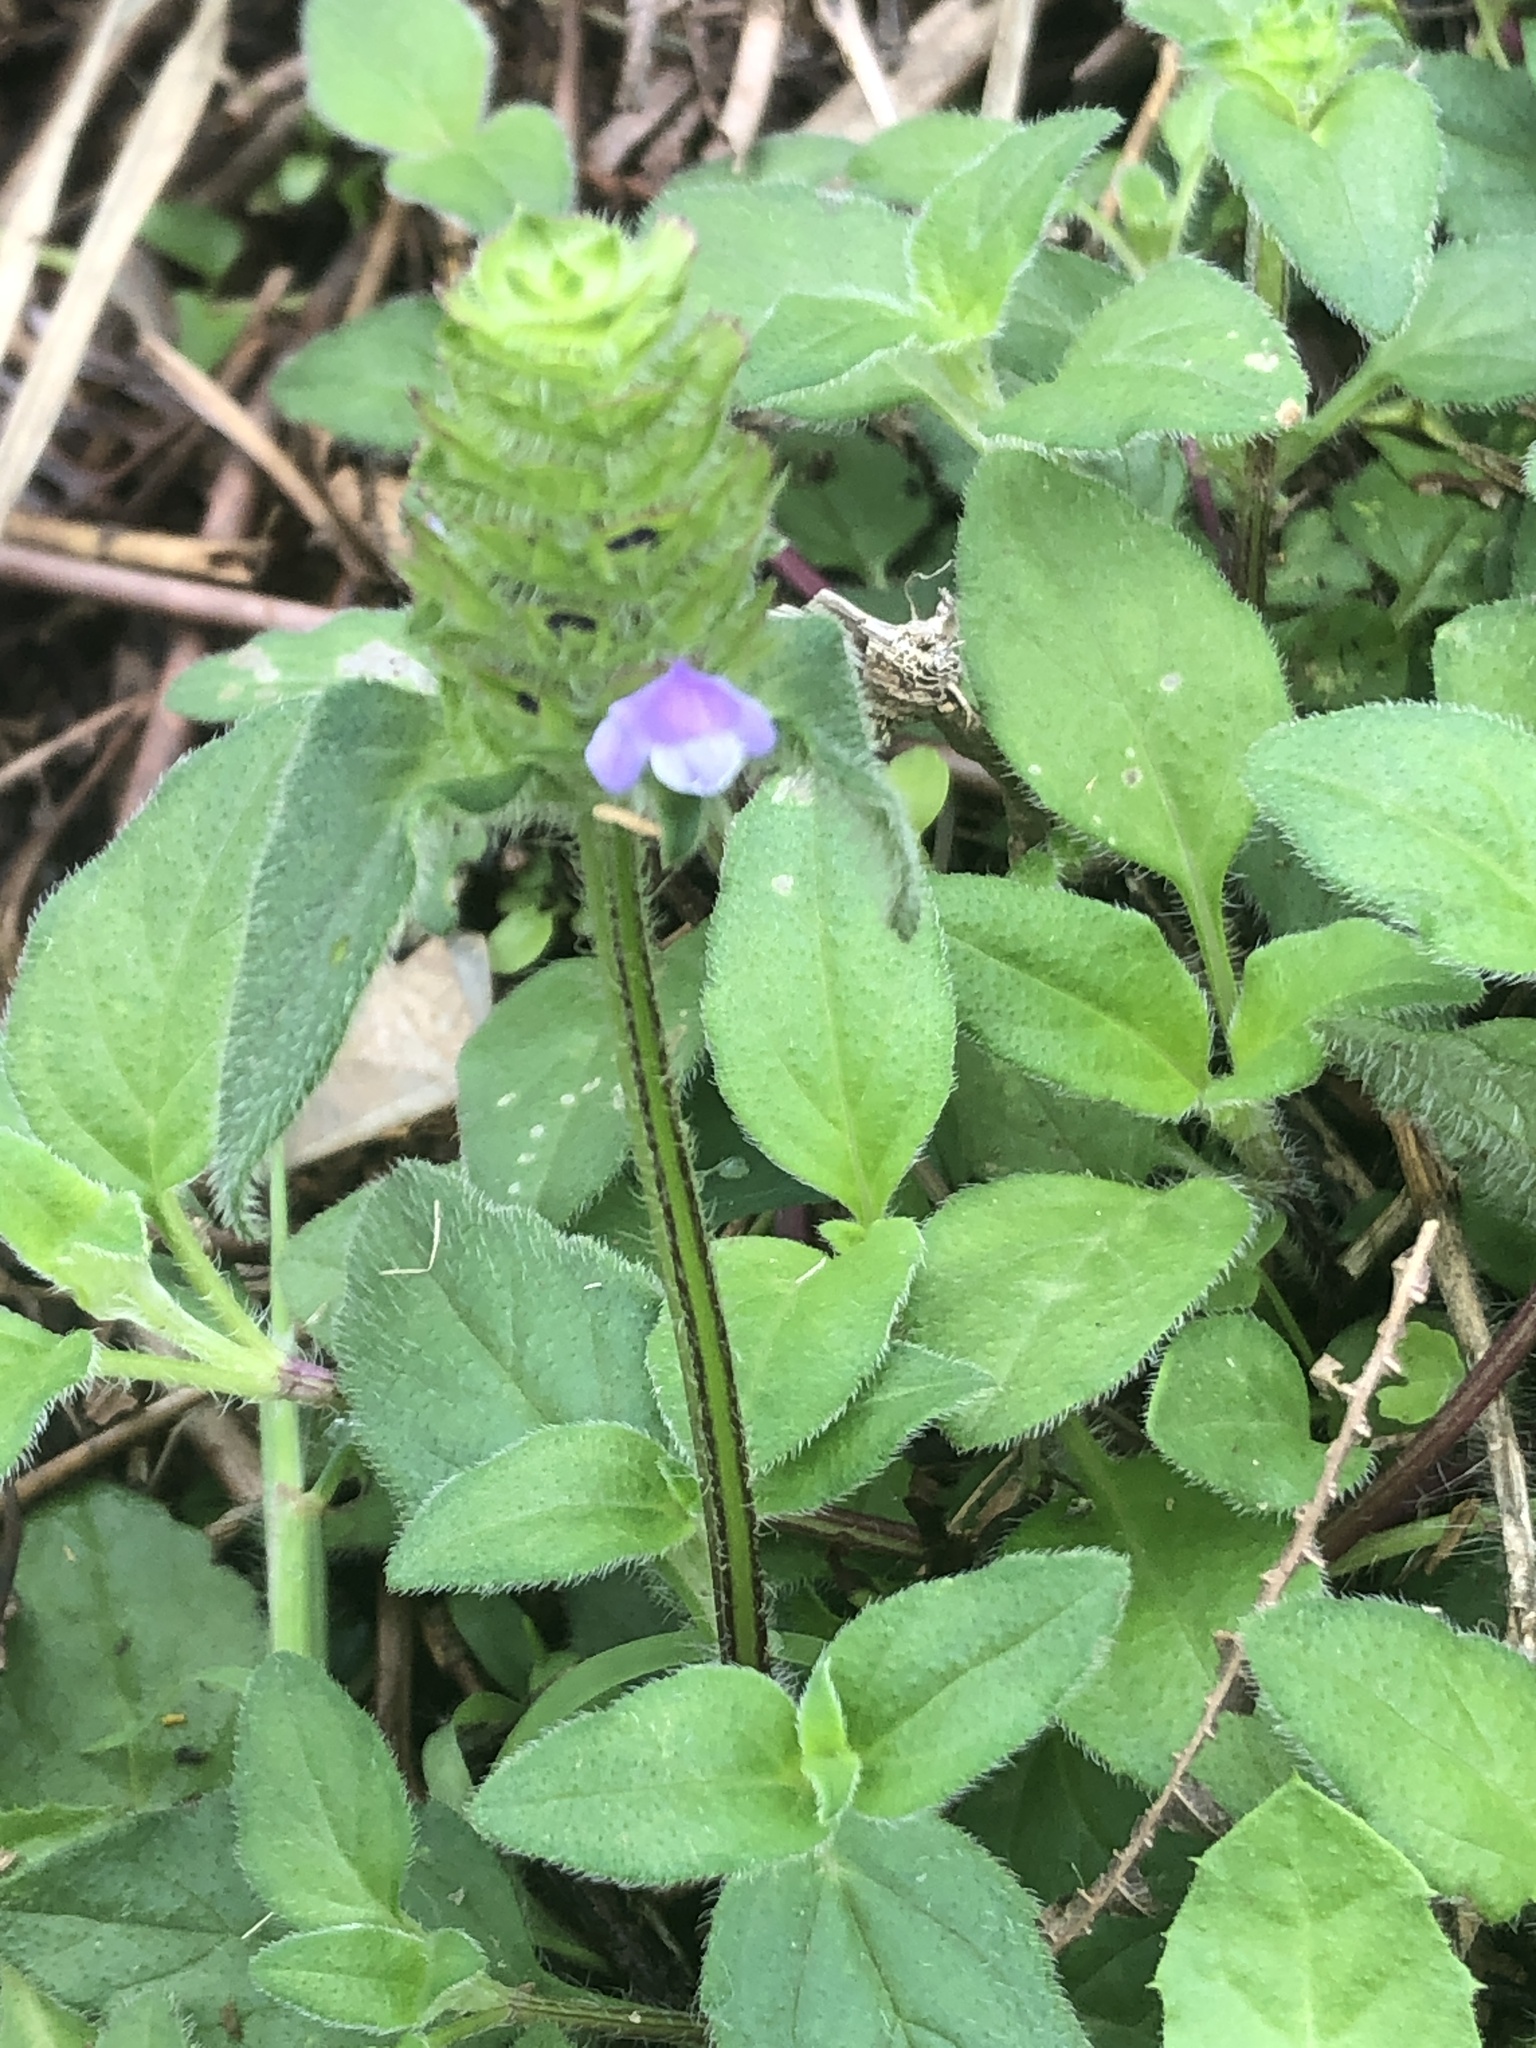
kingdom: Plantae
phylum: Tracheophyta
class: Magnoliopsida
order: Lamiales
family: Lamiaceae
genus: Prunella
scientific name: Prunella vulgaris
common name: Heal-all
